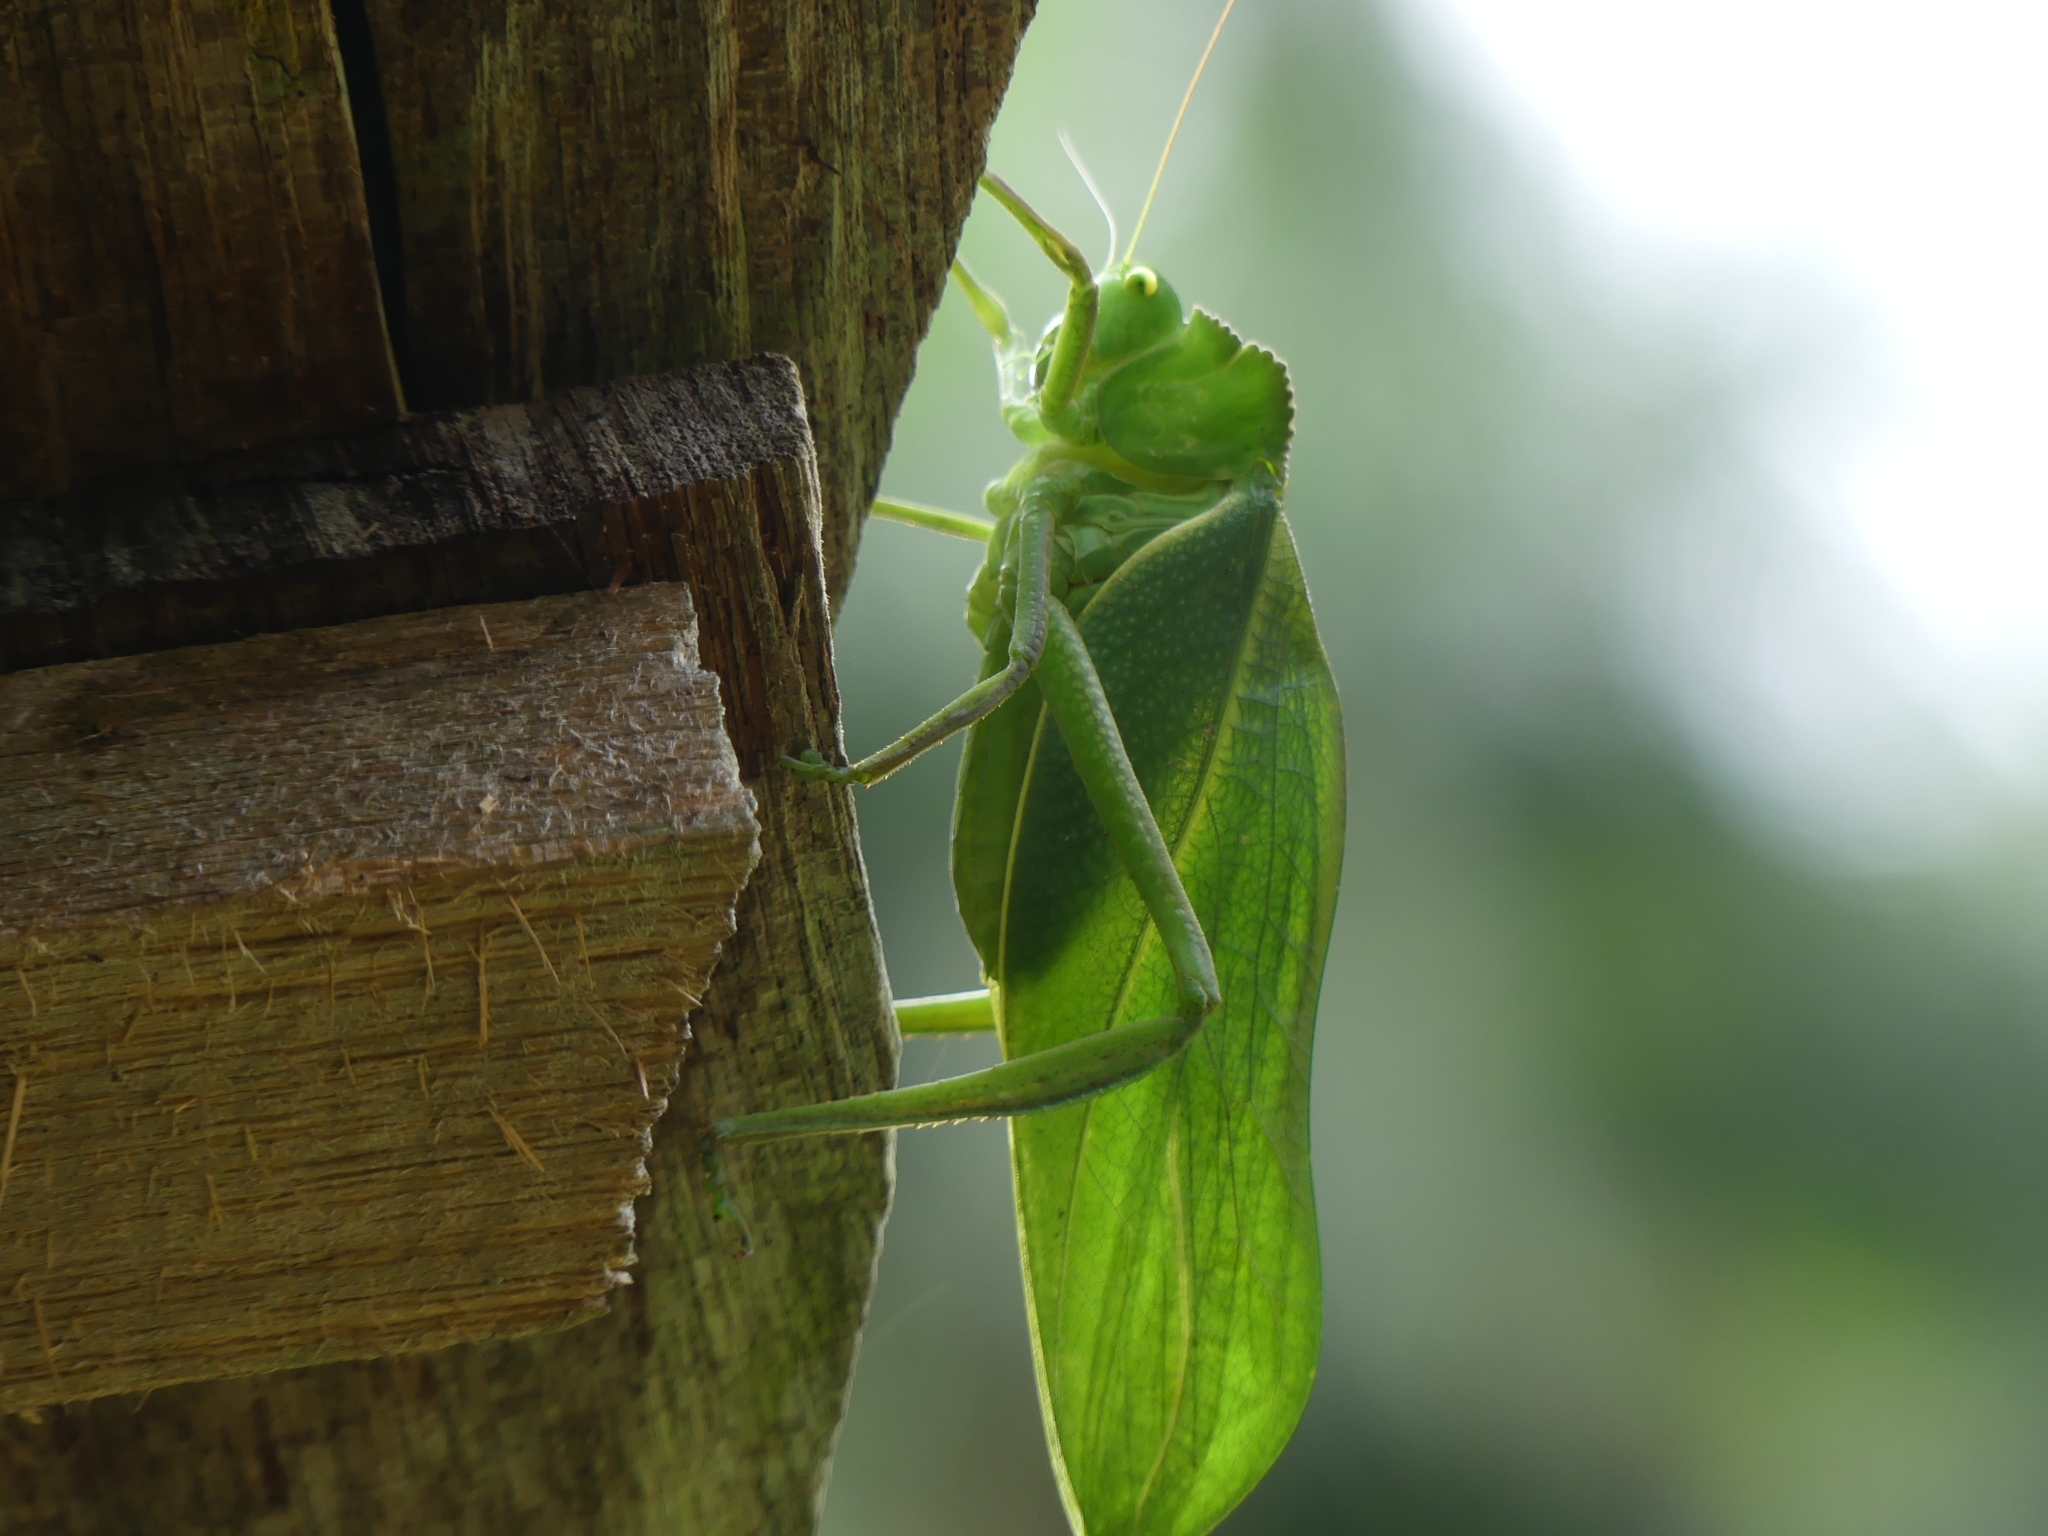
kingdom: Animalia
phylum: Arthropoda
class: Insecta
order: Orthoptera
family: Tettigoniidae
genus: Steirodon
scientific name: Steirodon
